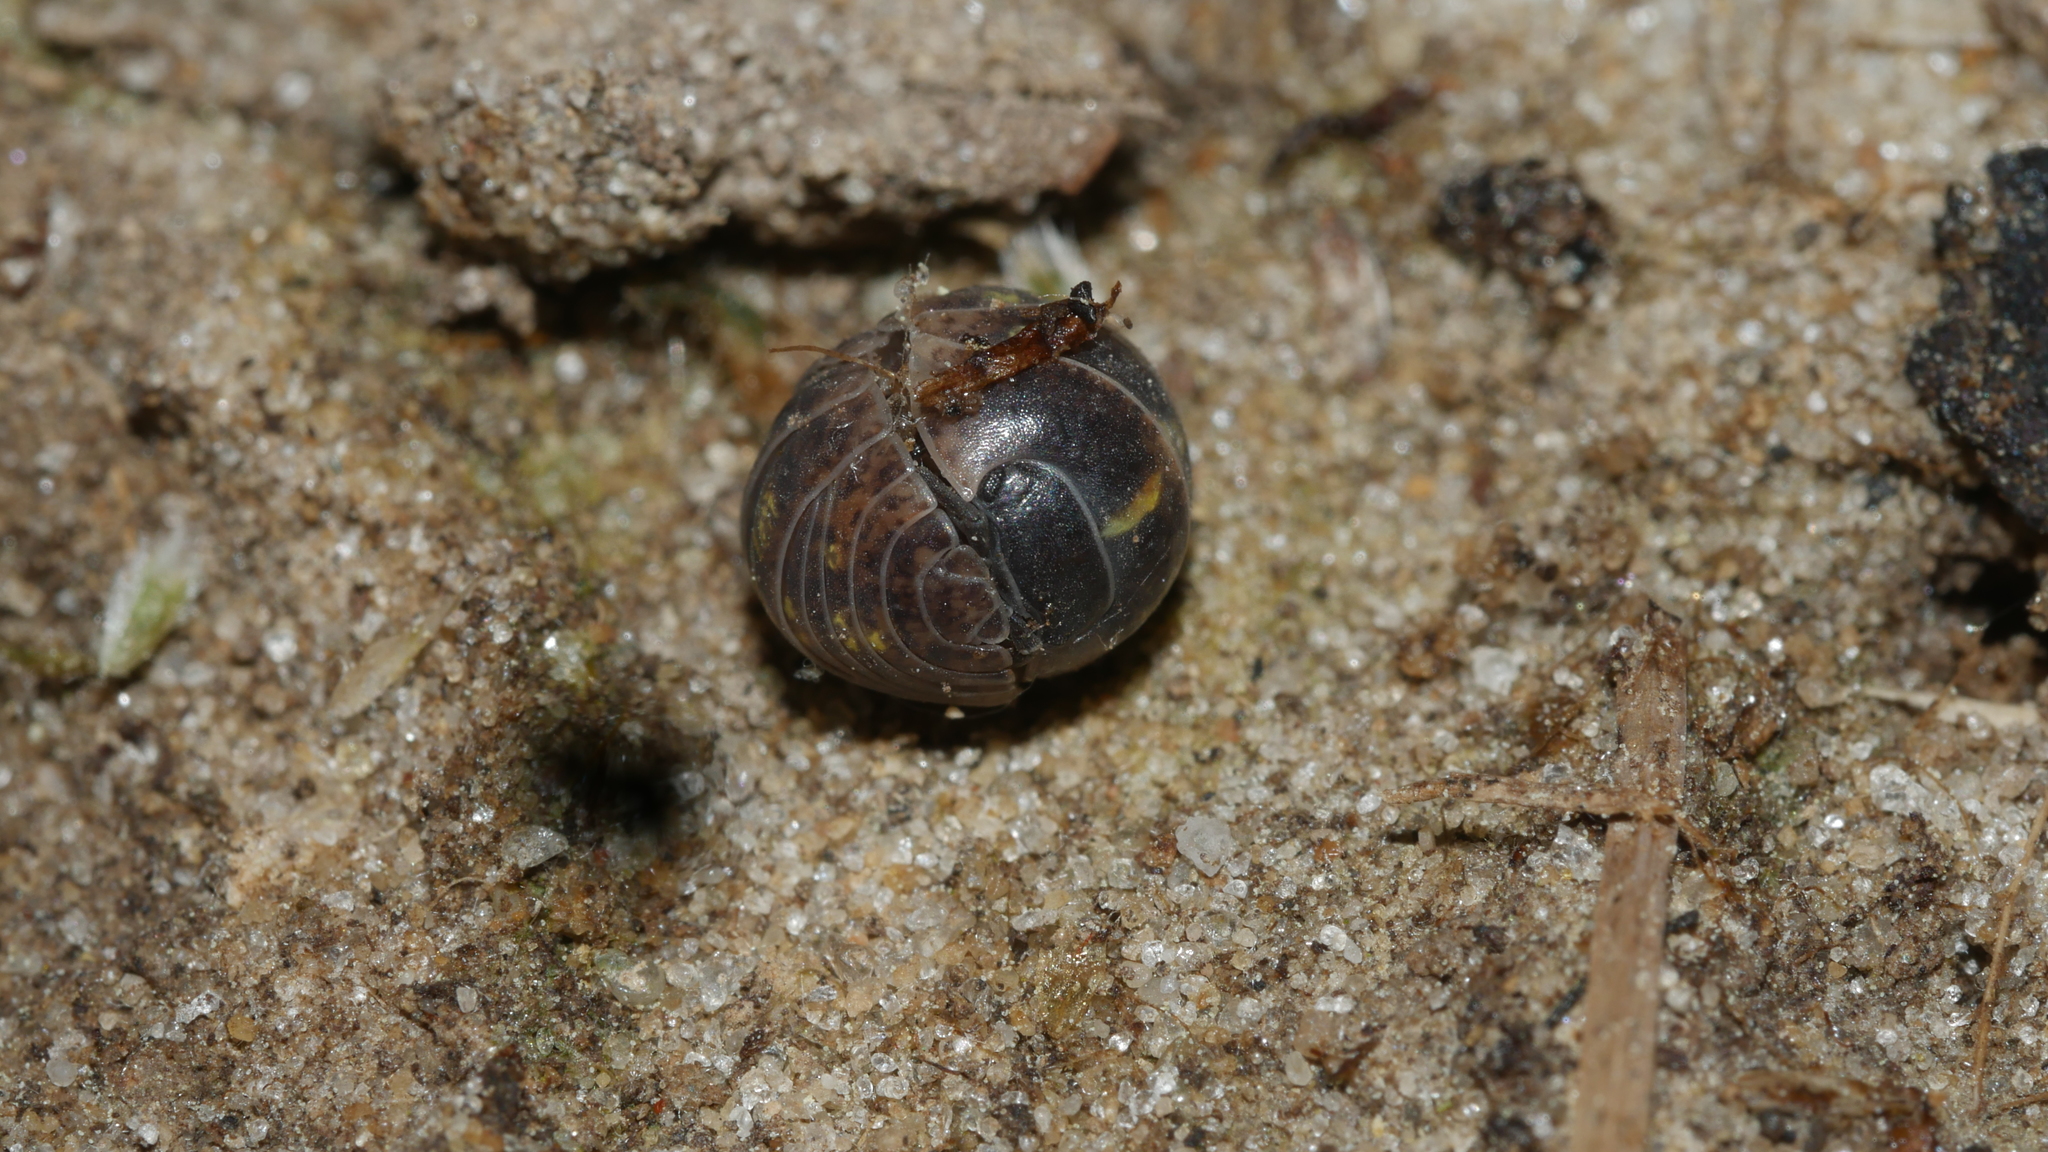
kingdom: Animalia
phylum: Arthropoda
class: Malacostraca
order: Isopoda
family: Armadillidiidae
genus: Armadillidium
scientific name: Armadillidium vulgare
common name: Common pill woodlouse
